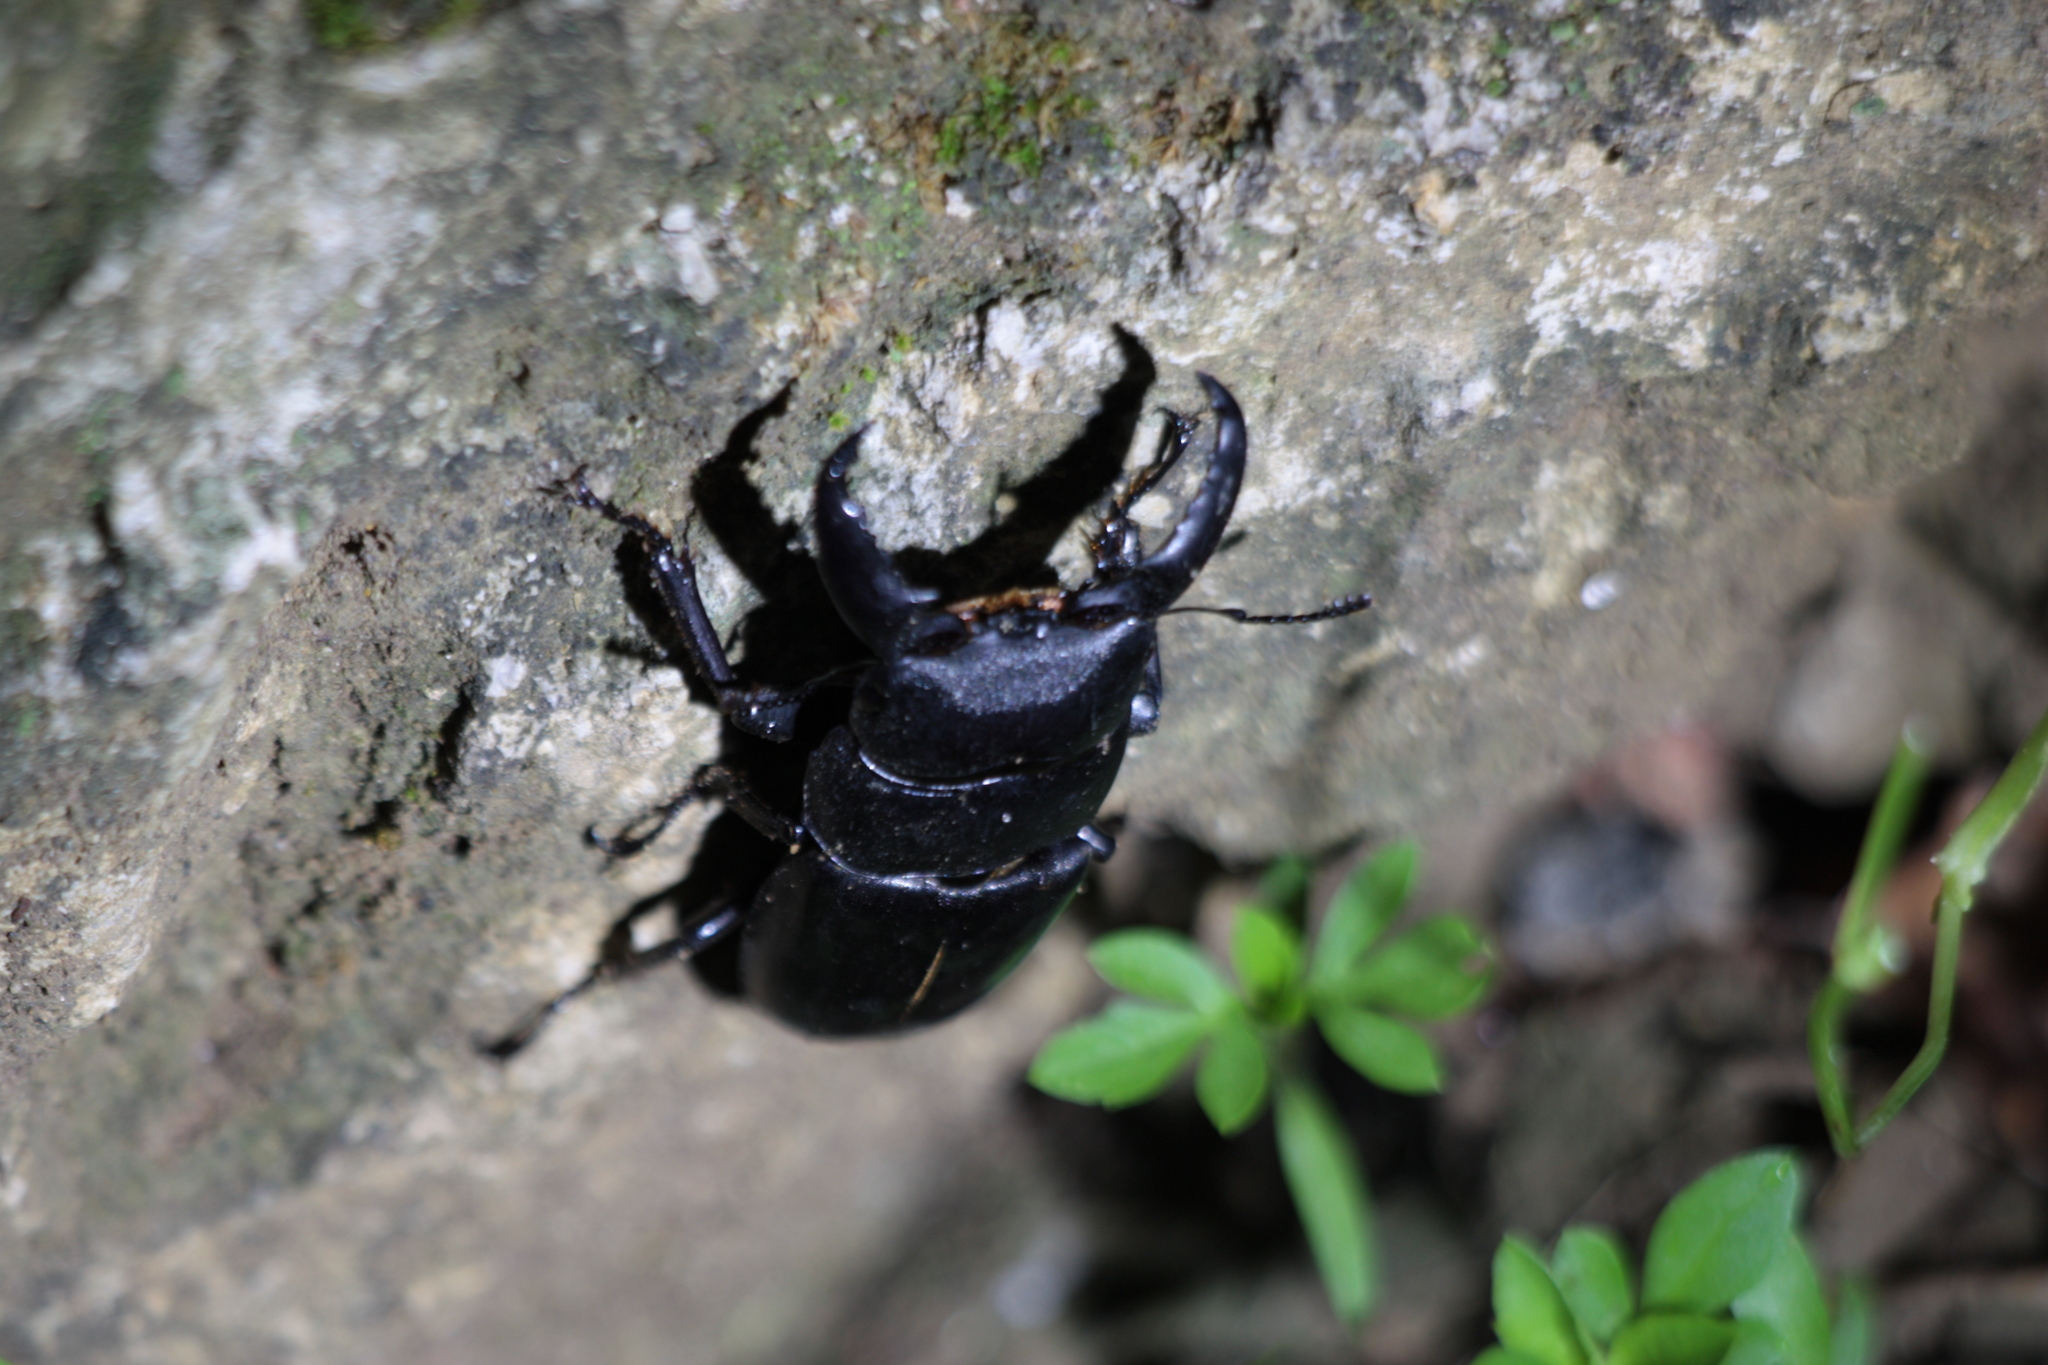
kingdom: Animalia
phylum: Arthropoda
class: Insecta
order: Coleoptera
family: Lucanidae
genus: Serrognathus
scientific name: Serrognathus titanus
